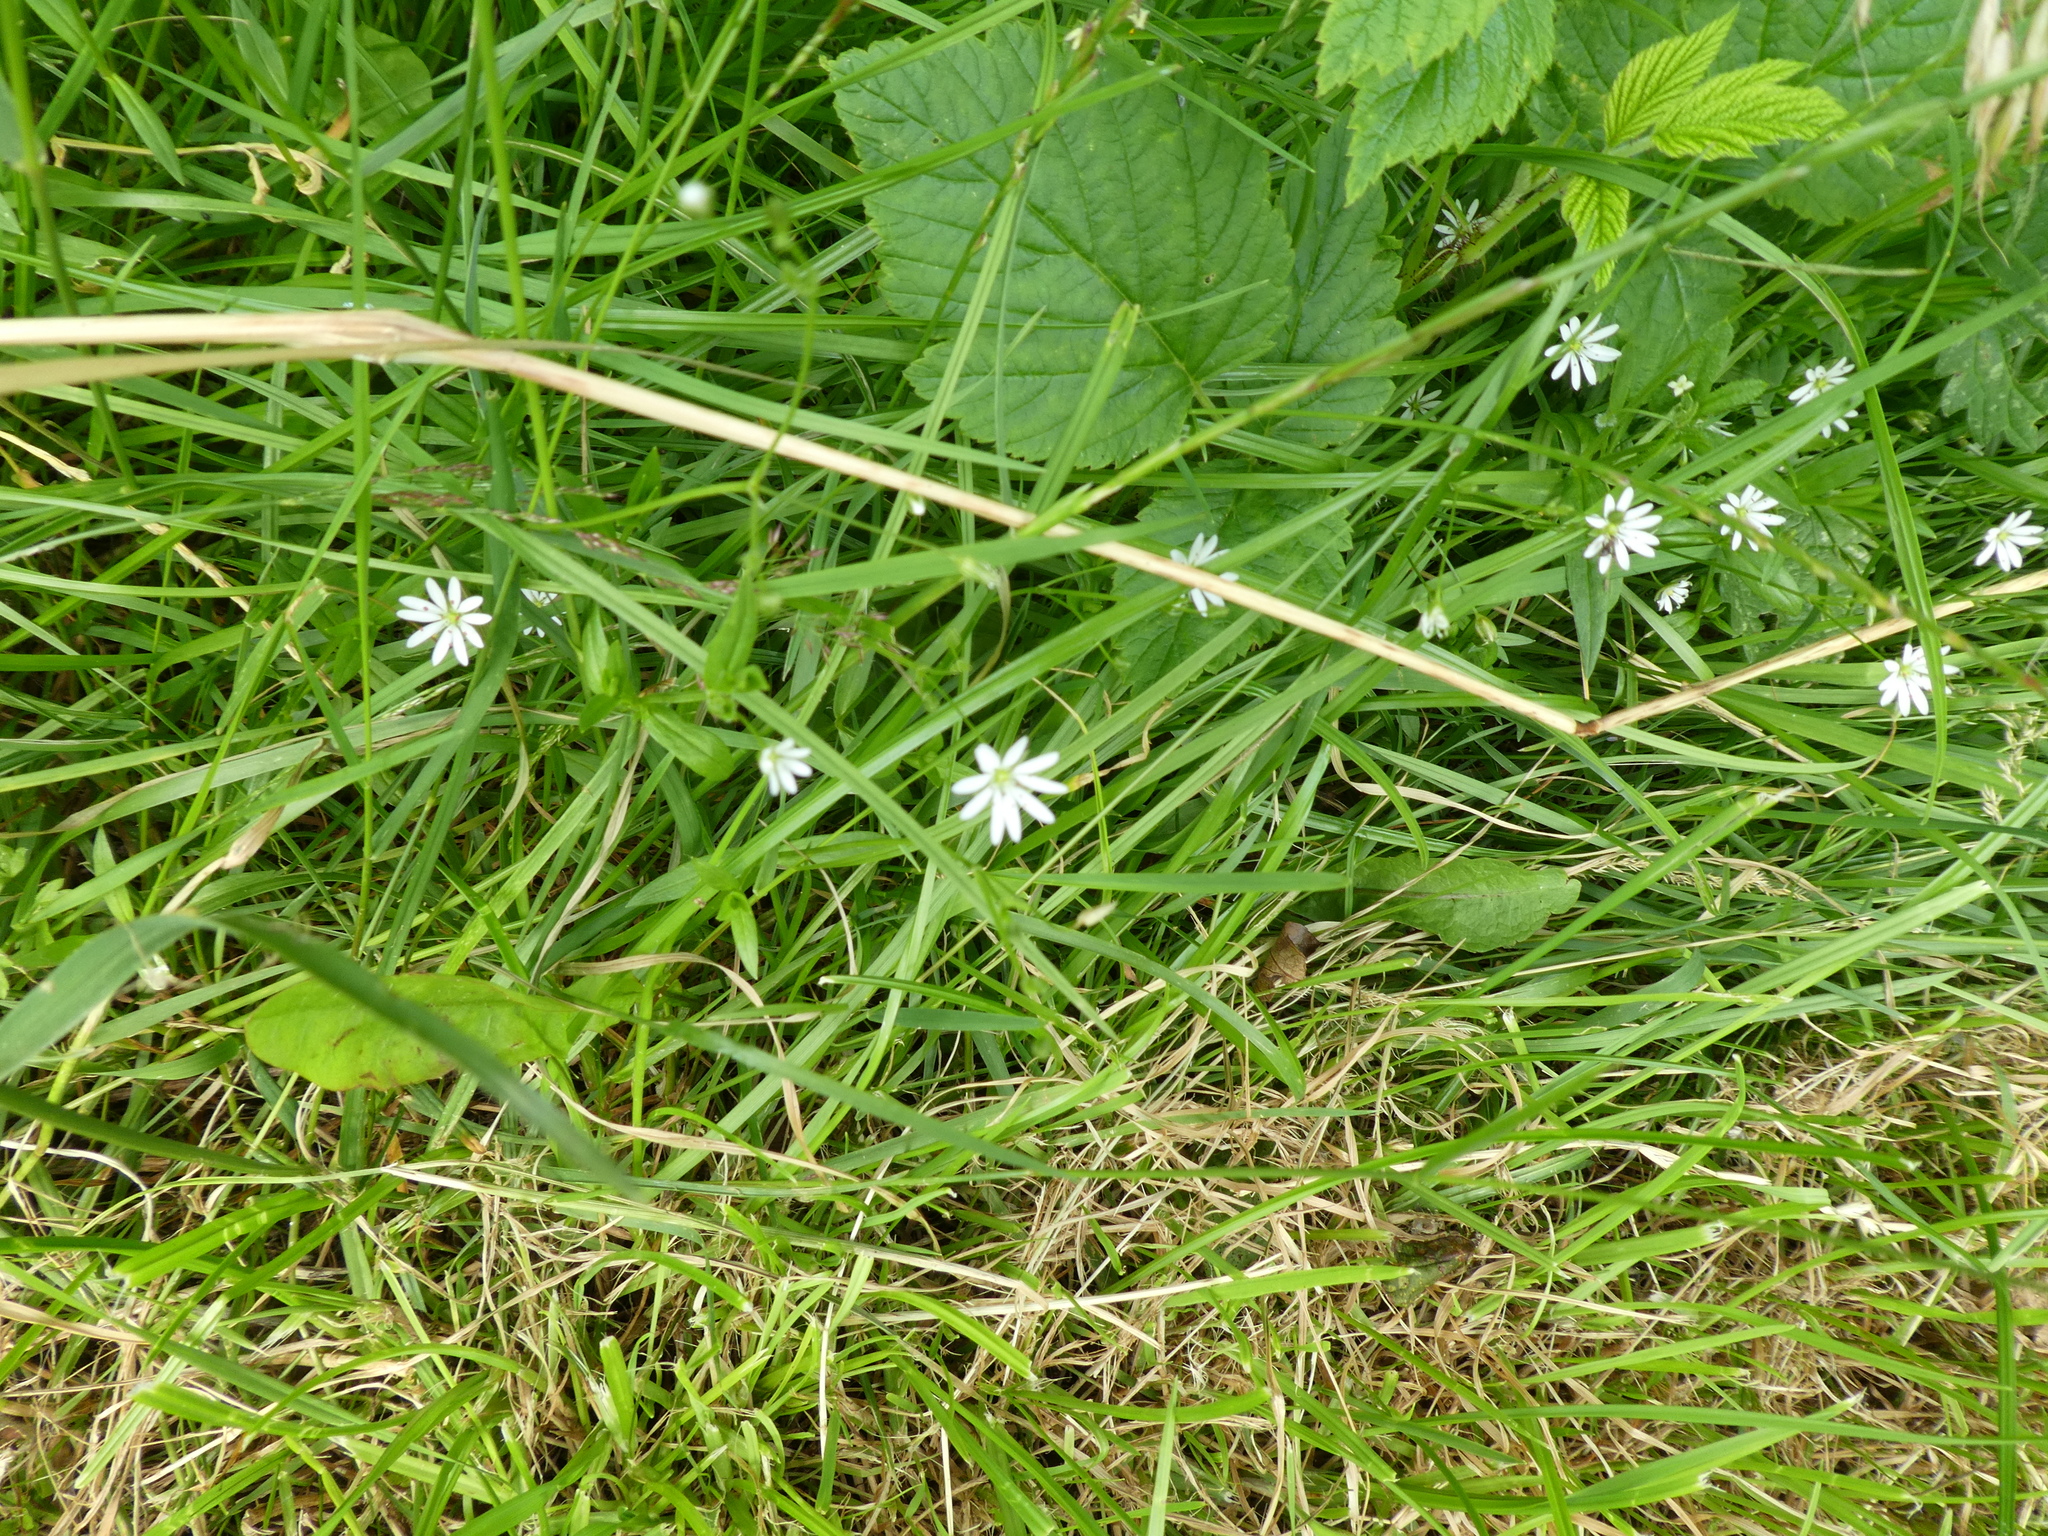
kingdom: Plantae
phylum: Tracheophyta
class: Magnoliopsida
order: Caryophyllales
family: Caryophyllaceae
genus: Stellaria
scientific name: Stellaria graminea
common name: Grass-like starwort
